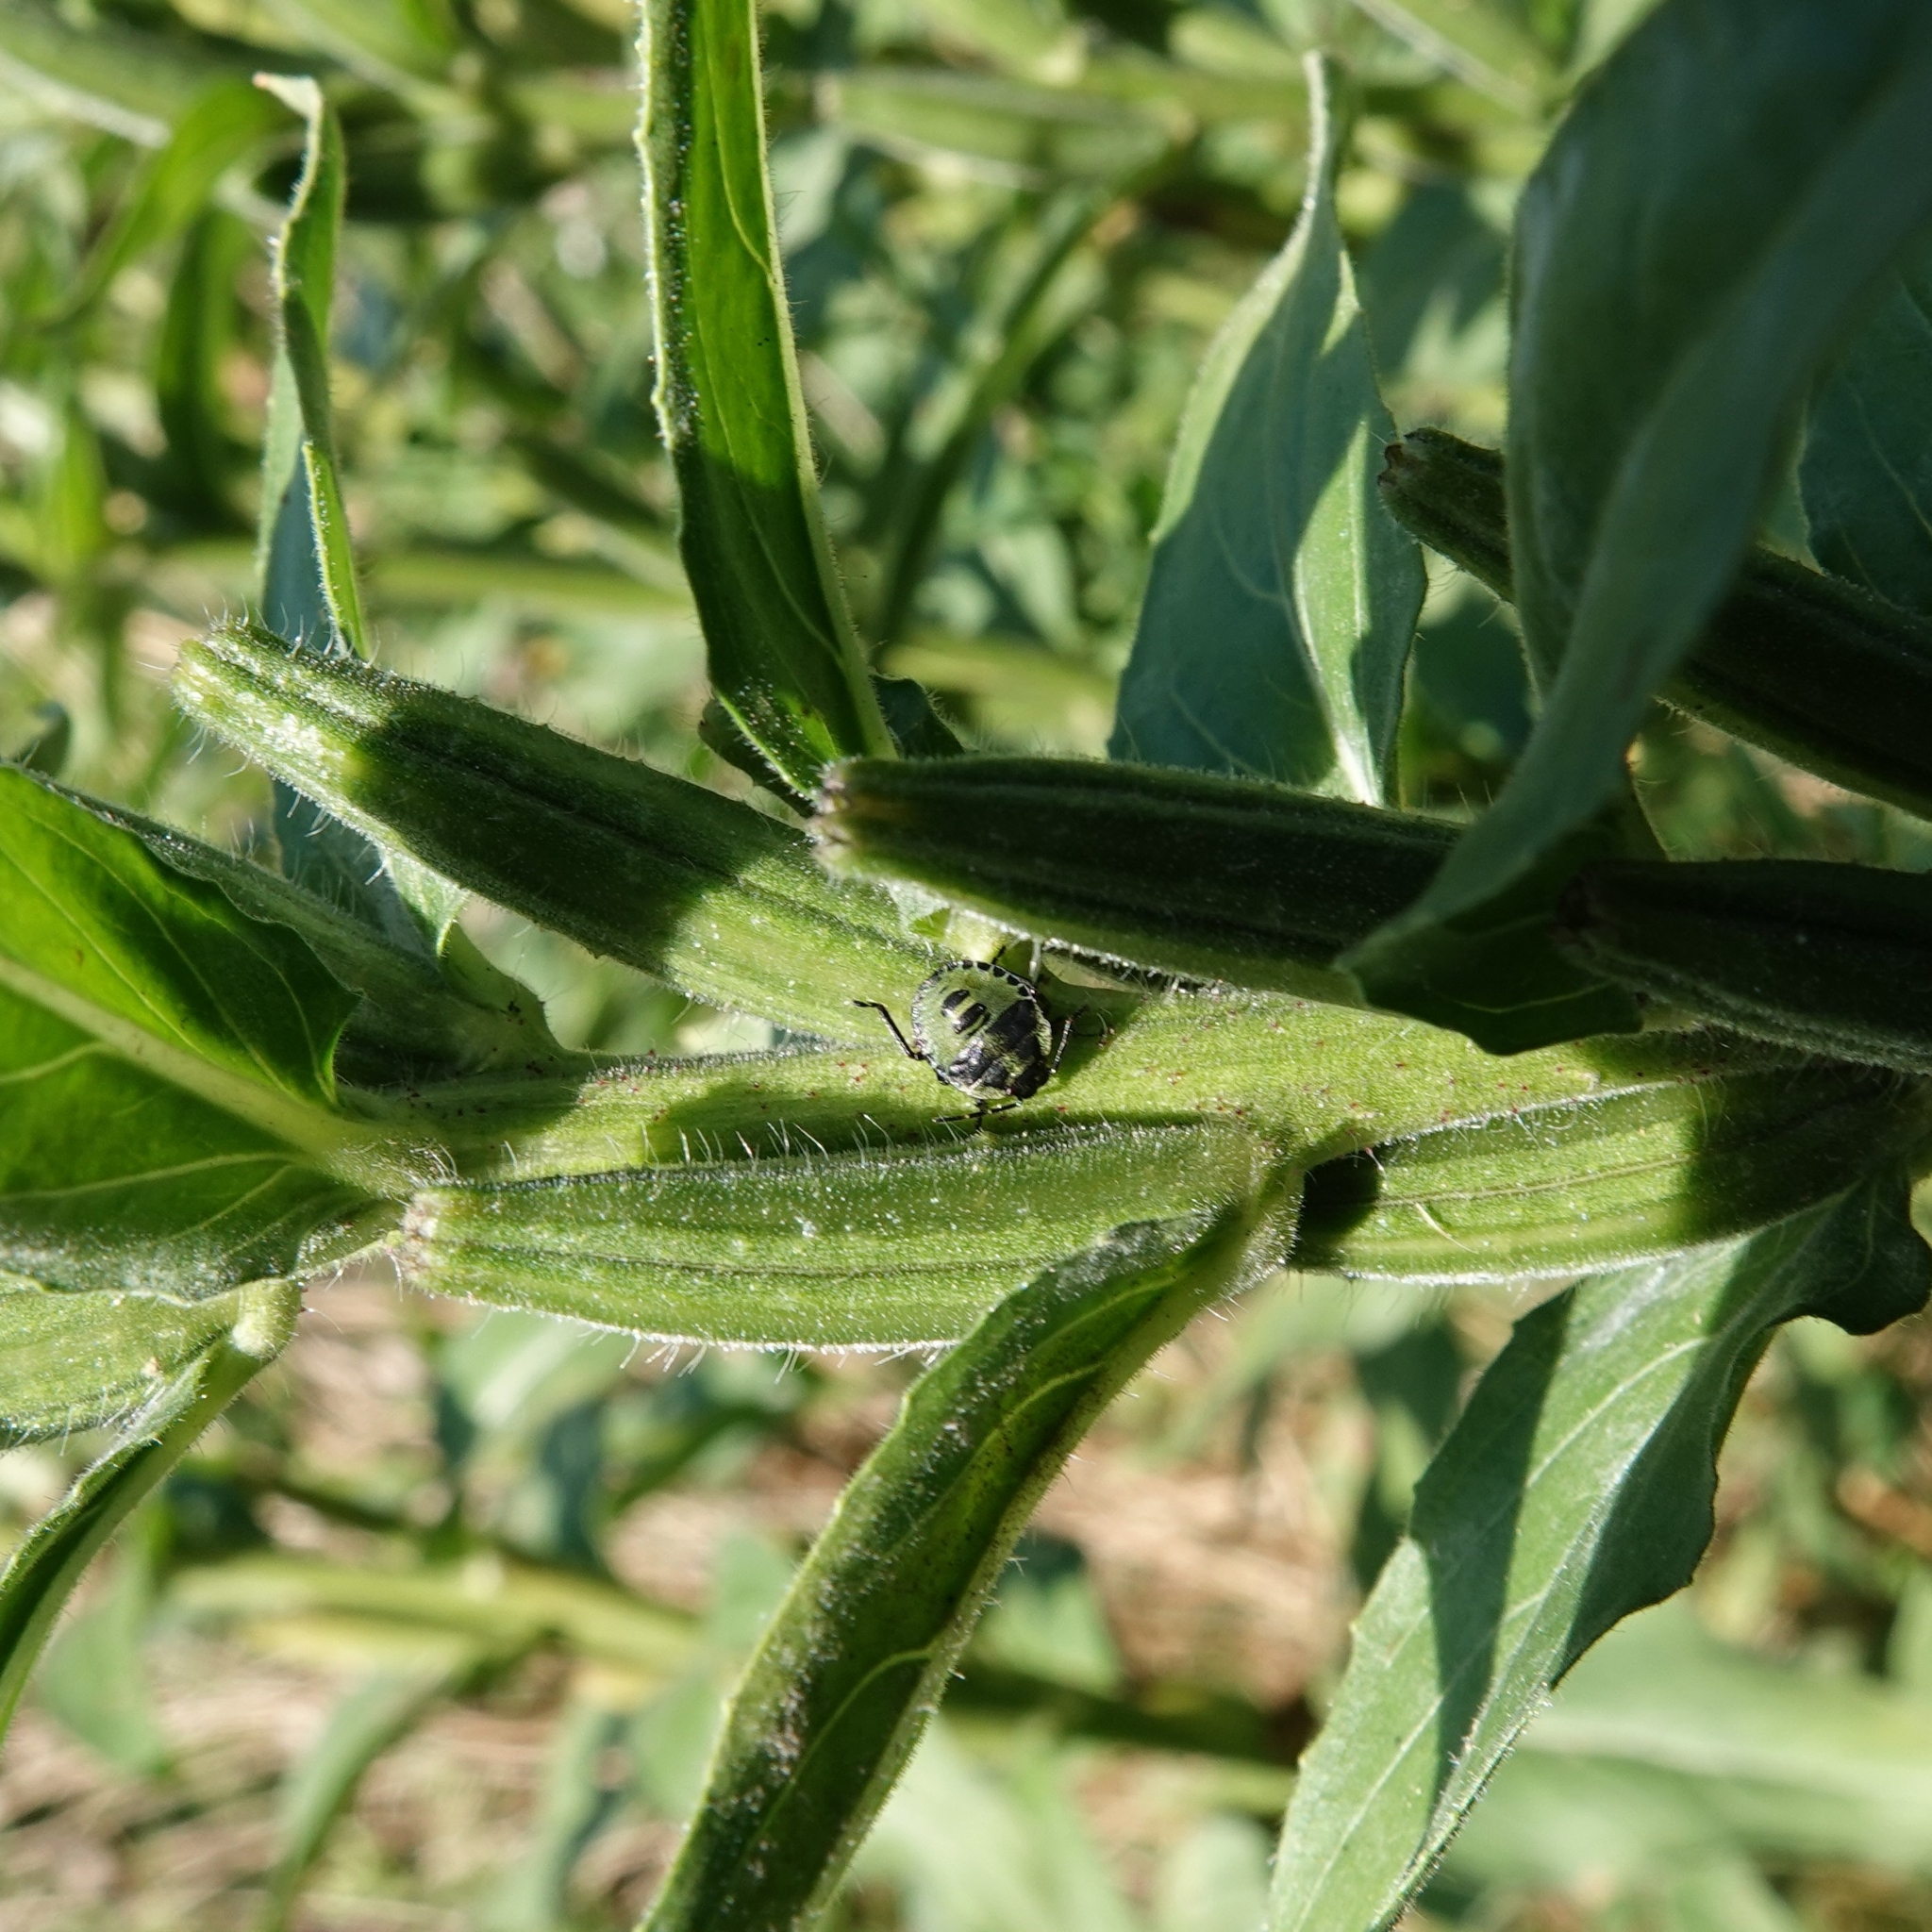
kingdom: Animalia
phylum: Arthropoda
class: Insecta
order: Hemiptera
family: Pentatomidae
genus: Palomena
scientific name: Palomena prasina
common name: Green shieldbug
